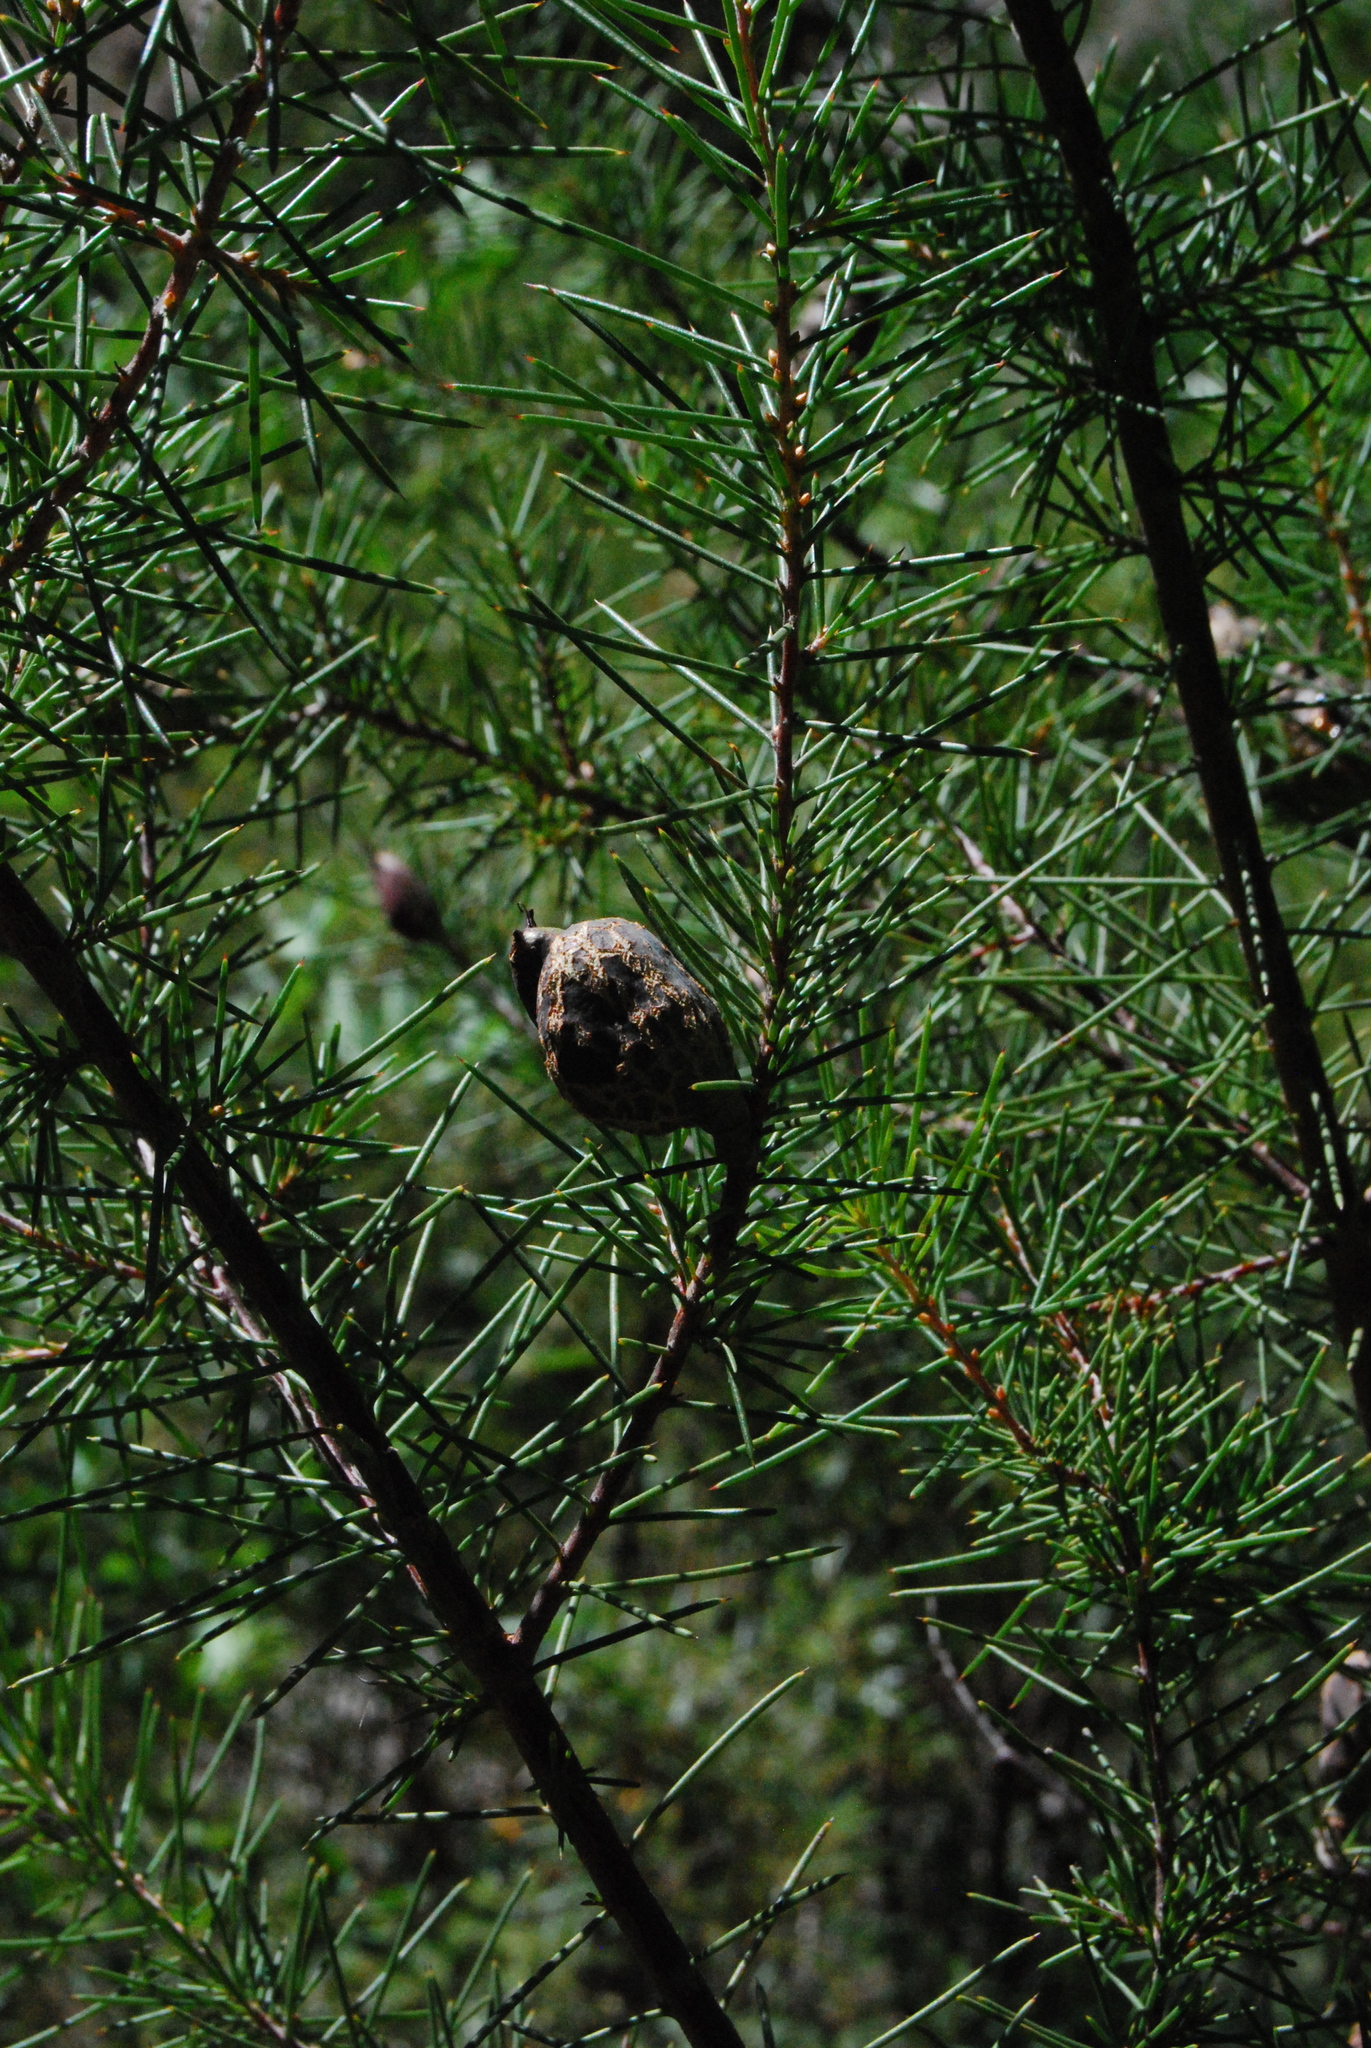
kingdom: Plantae
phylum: Tracheophyta
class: Magnoliopsida
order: Proteales
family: Proteaceae
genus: Hakea
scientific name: Hakea sericea
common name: Needle bush
